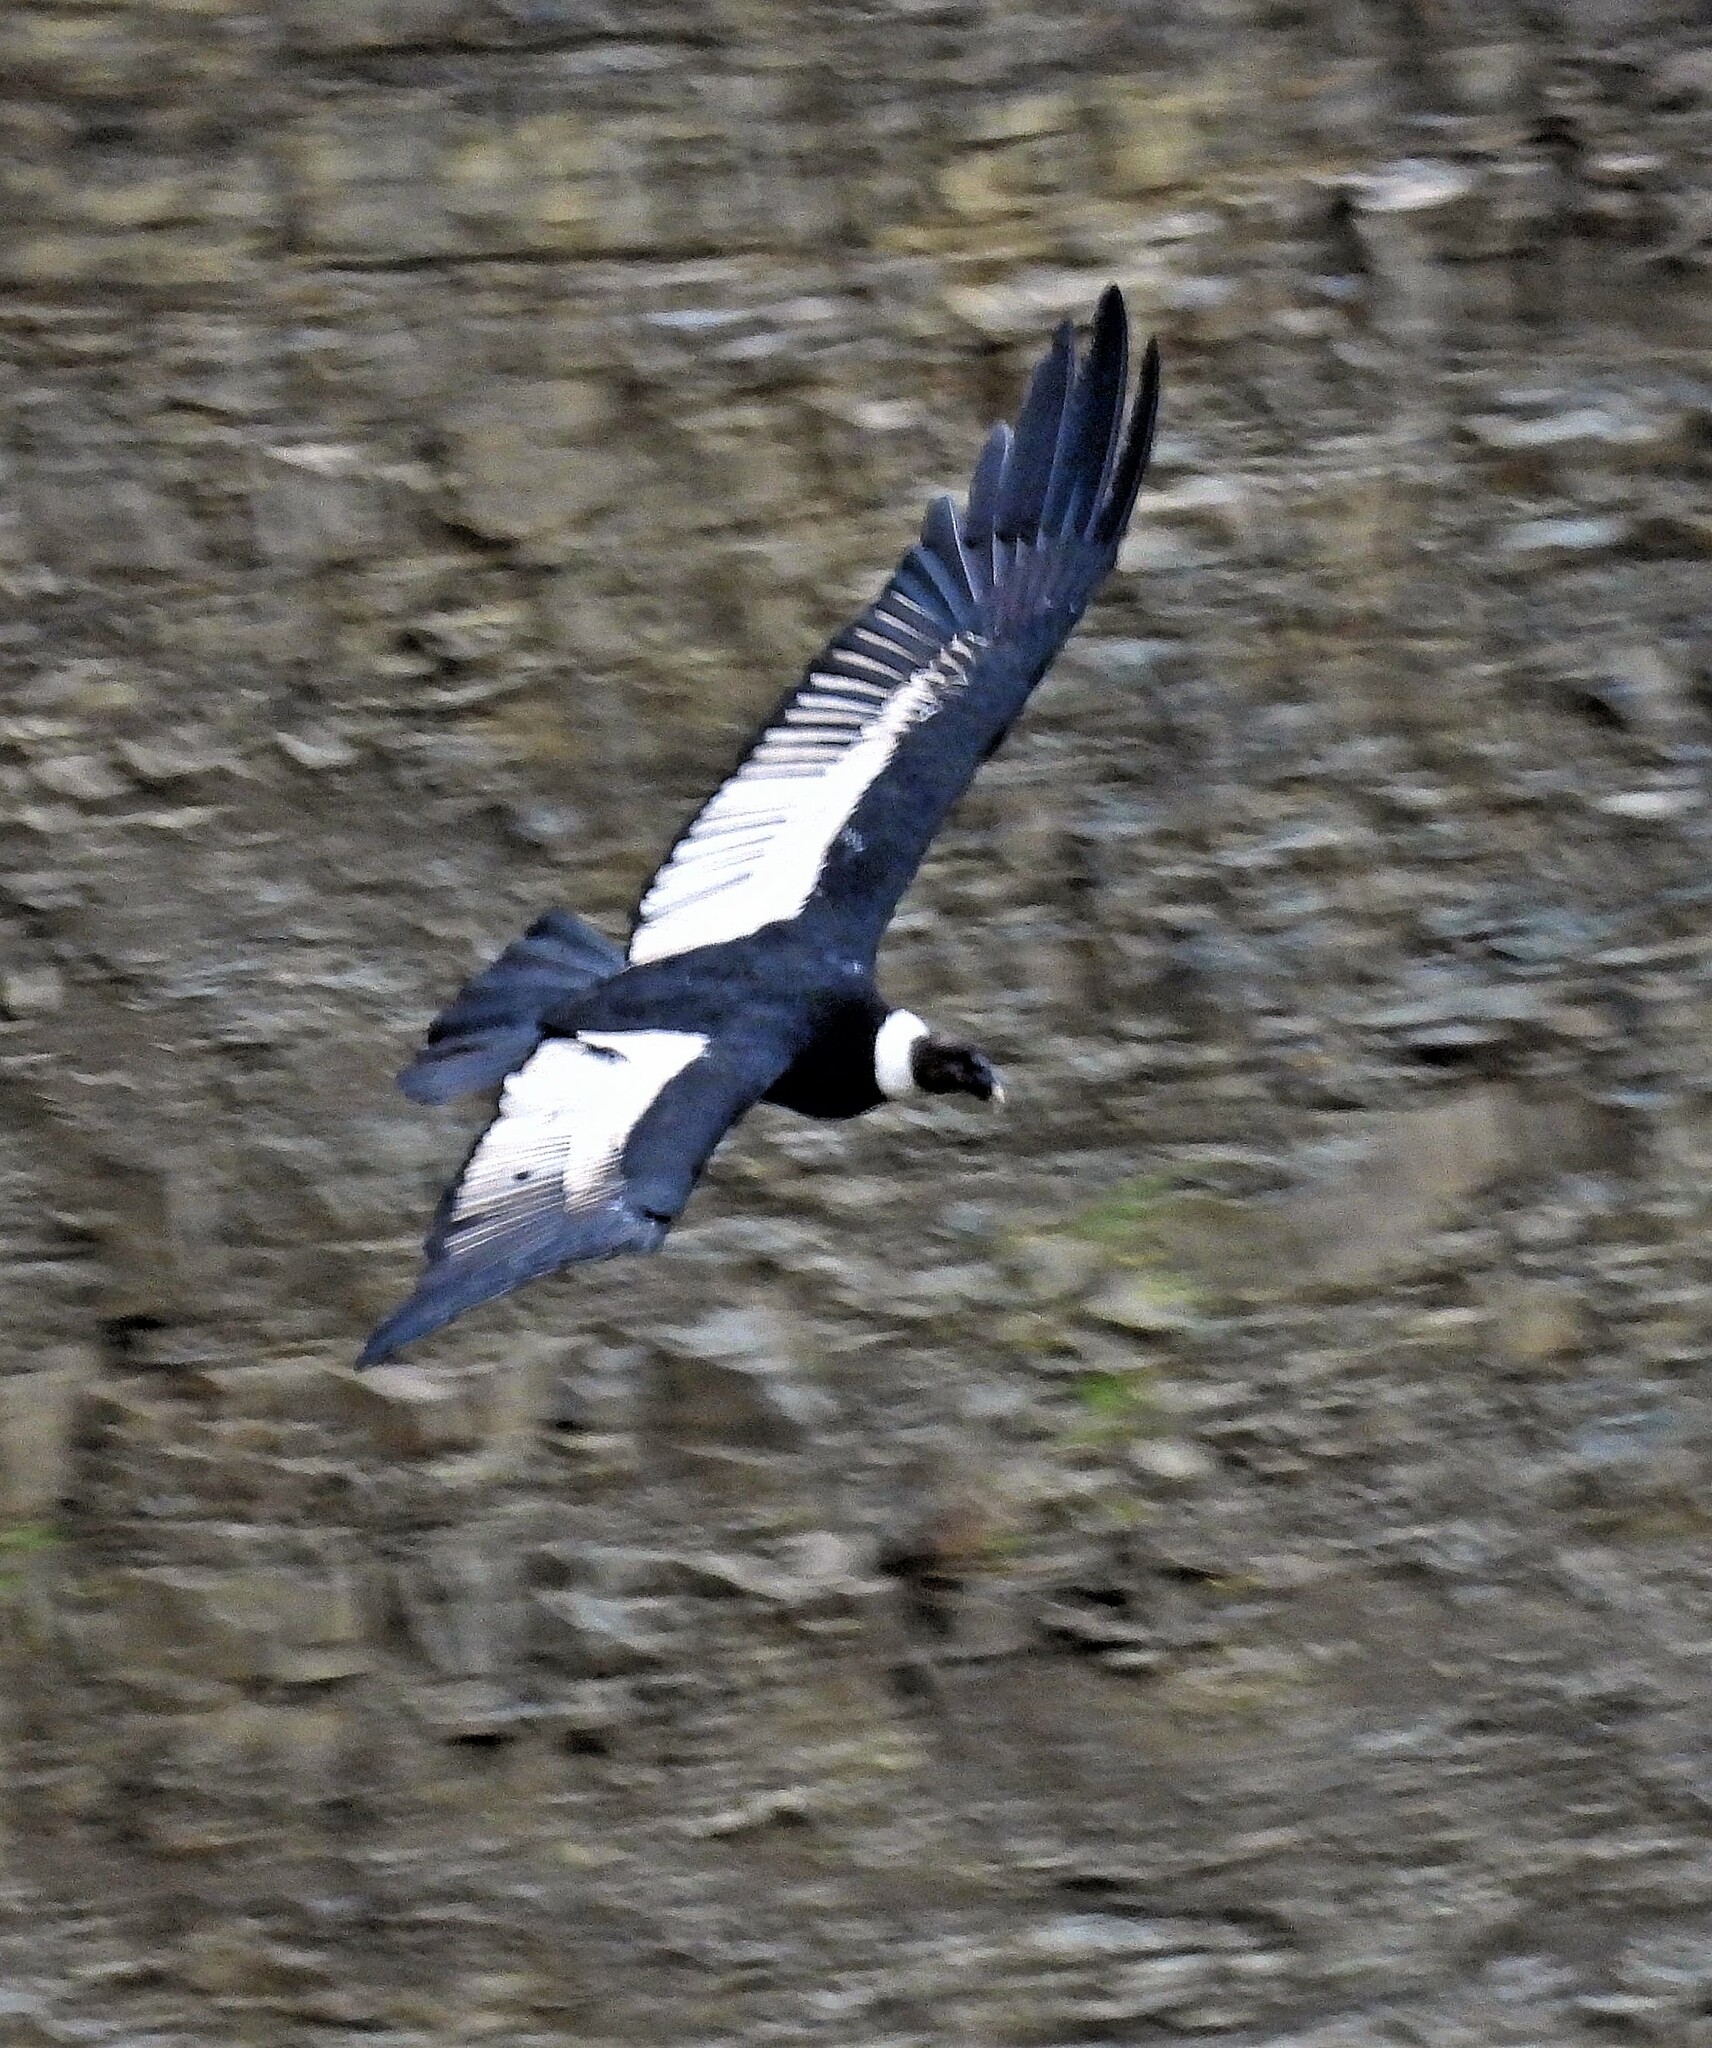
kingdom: Animalia
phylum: Chordata
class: Aves
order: Accipitriformes
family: Cathartidae
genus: Vultur
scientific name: Vultur gryphus
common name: Andean condor
